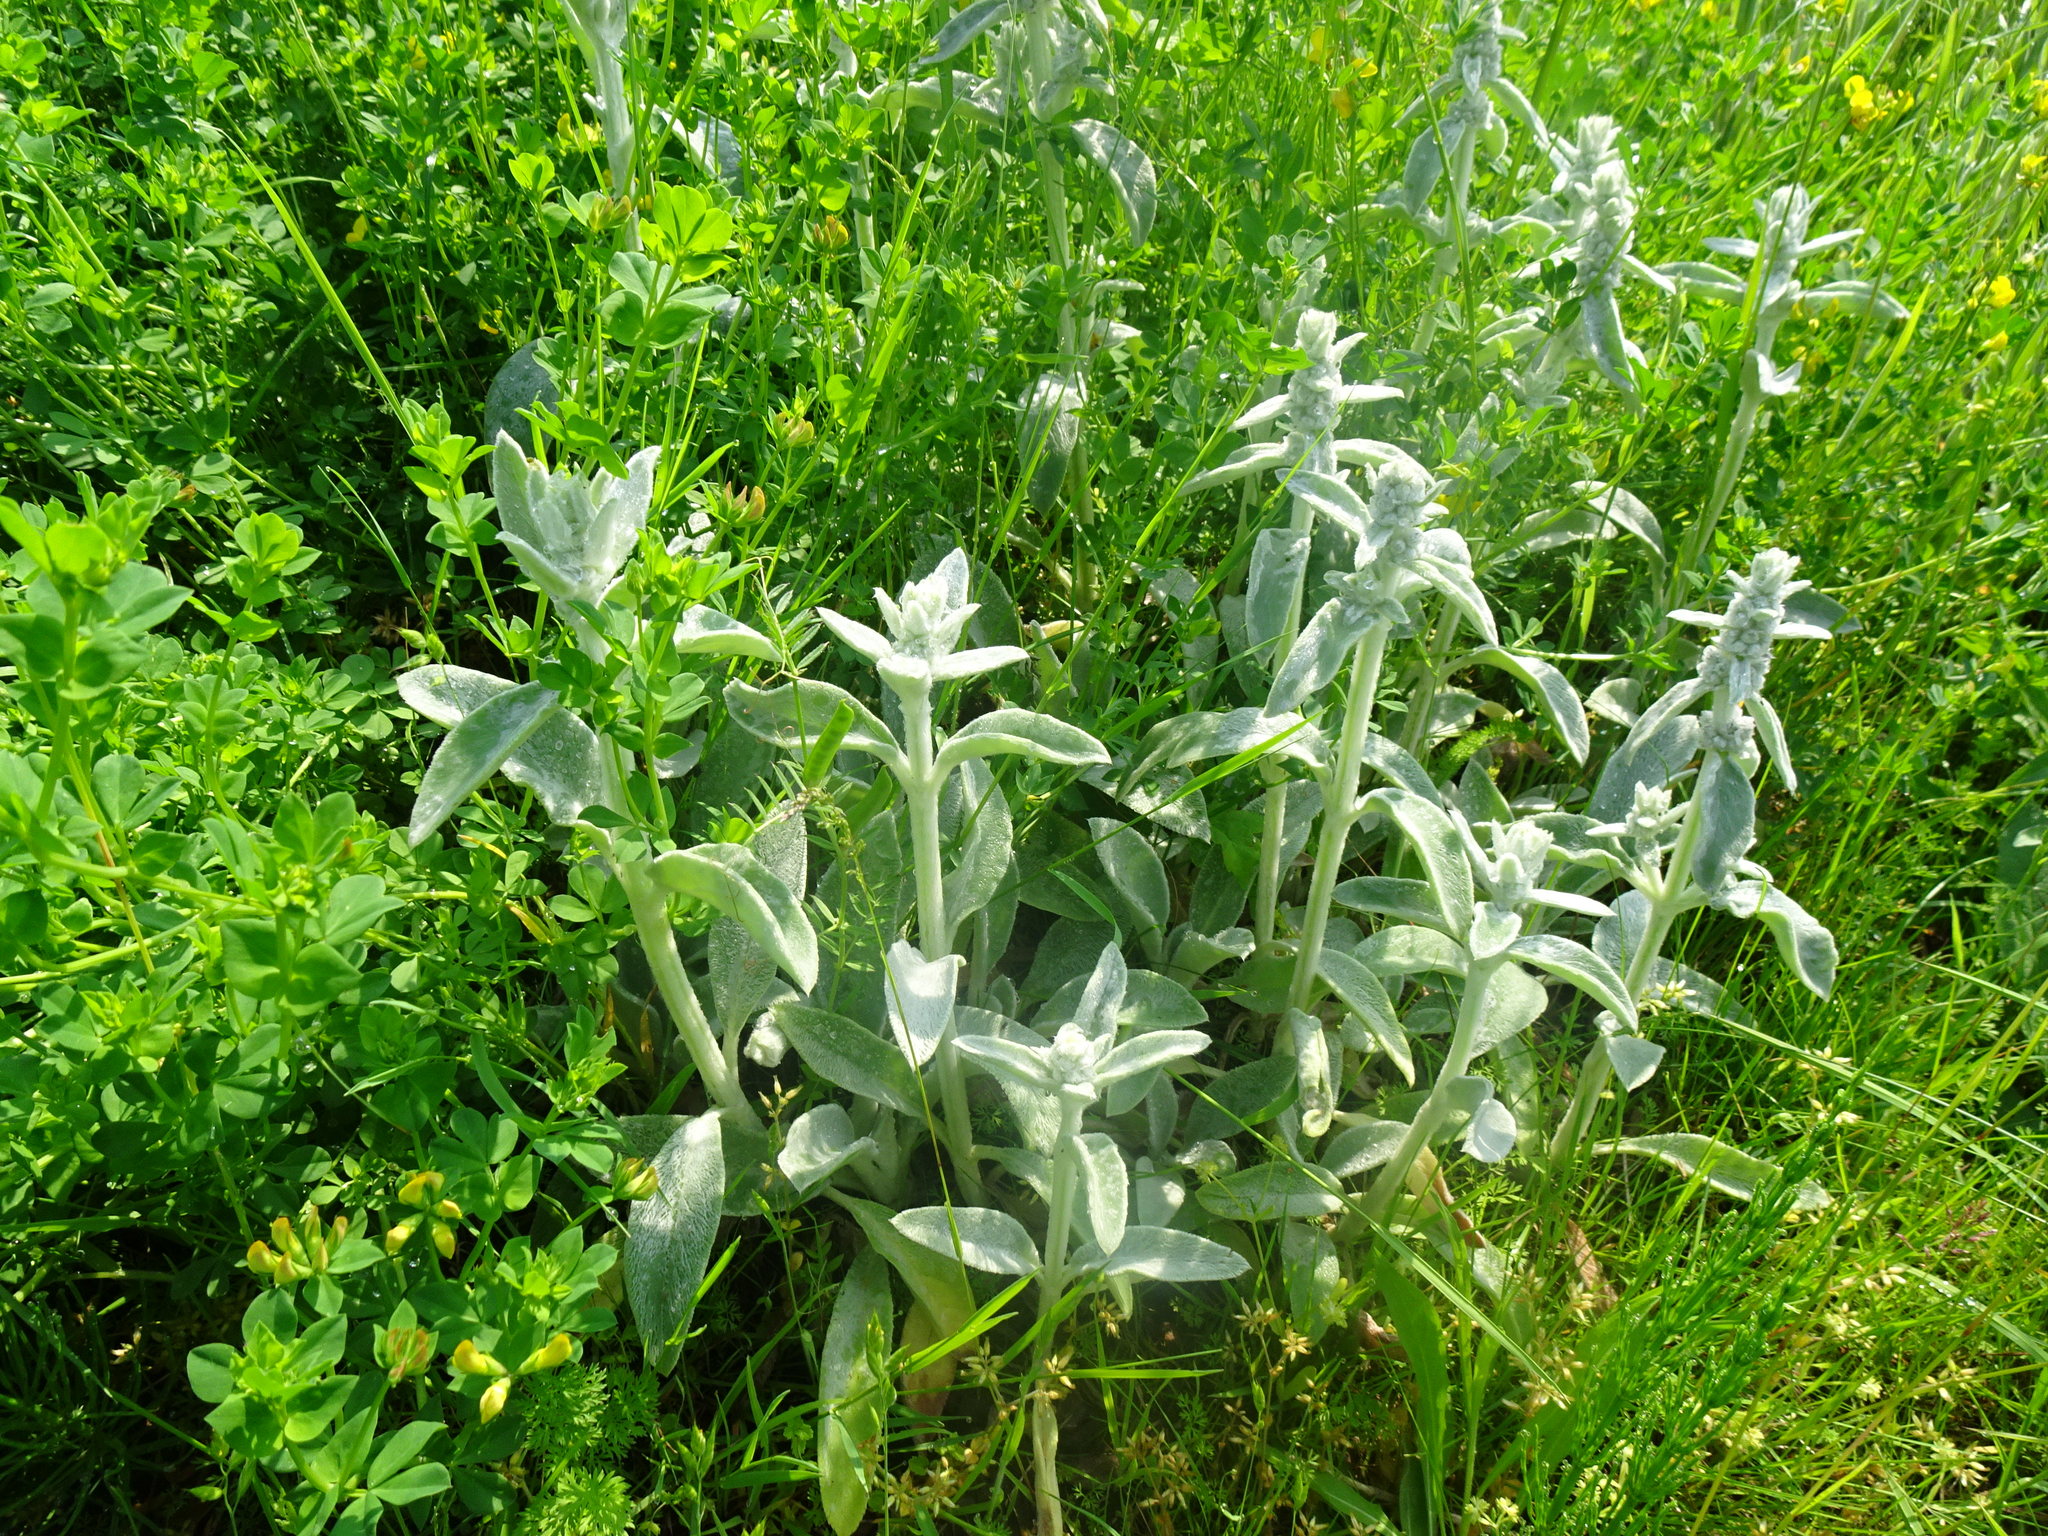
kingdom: Plantae
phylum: Tracheophyta
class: Magnoliopsida
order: Lamiales
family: Lamiaceae
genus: Stachys
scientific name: Stachys byzantina
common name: Lamb's-ear
